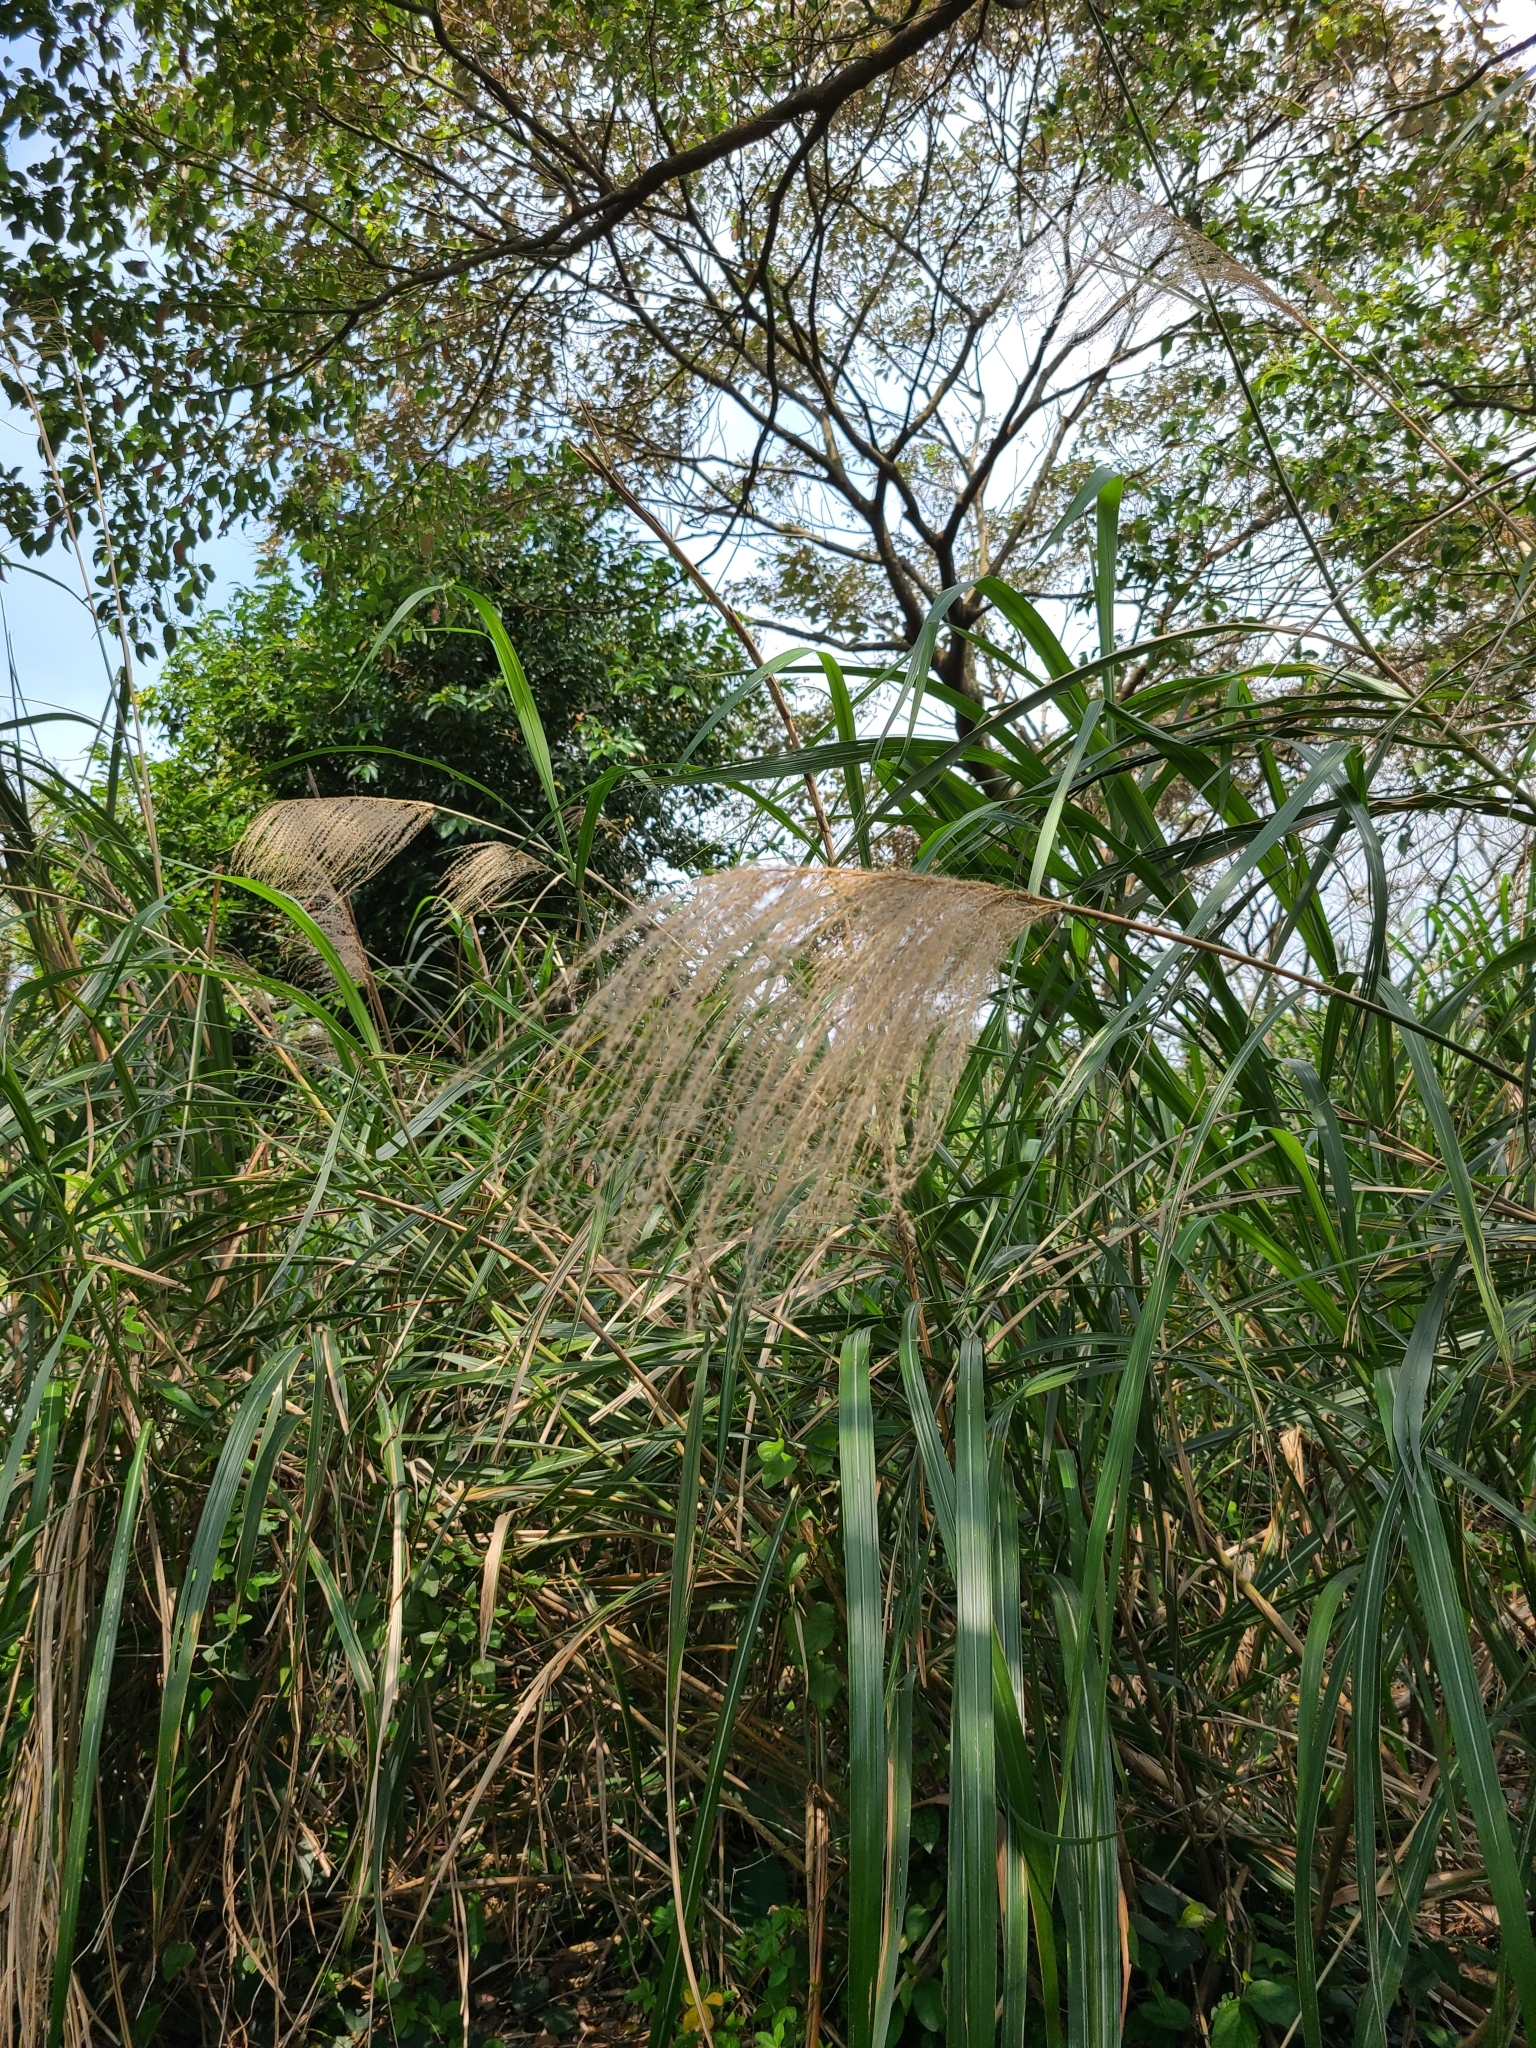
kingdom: Plantae
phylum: Tracheophyta
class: Liliopsida
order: Poales
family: Poaceae
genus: Miscanthus
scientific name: Miscanthus sinensis
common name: Chinese silvergrass
